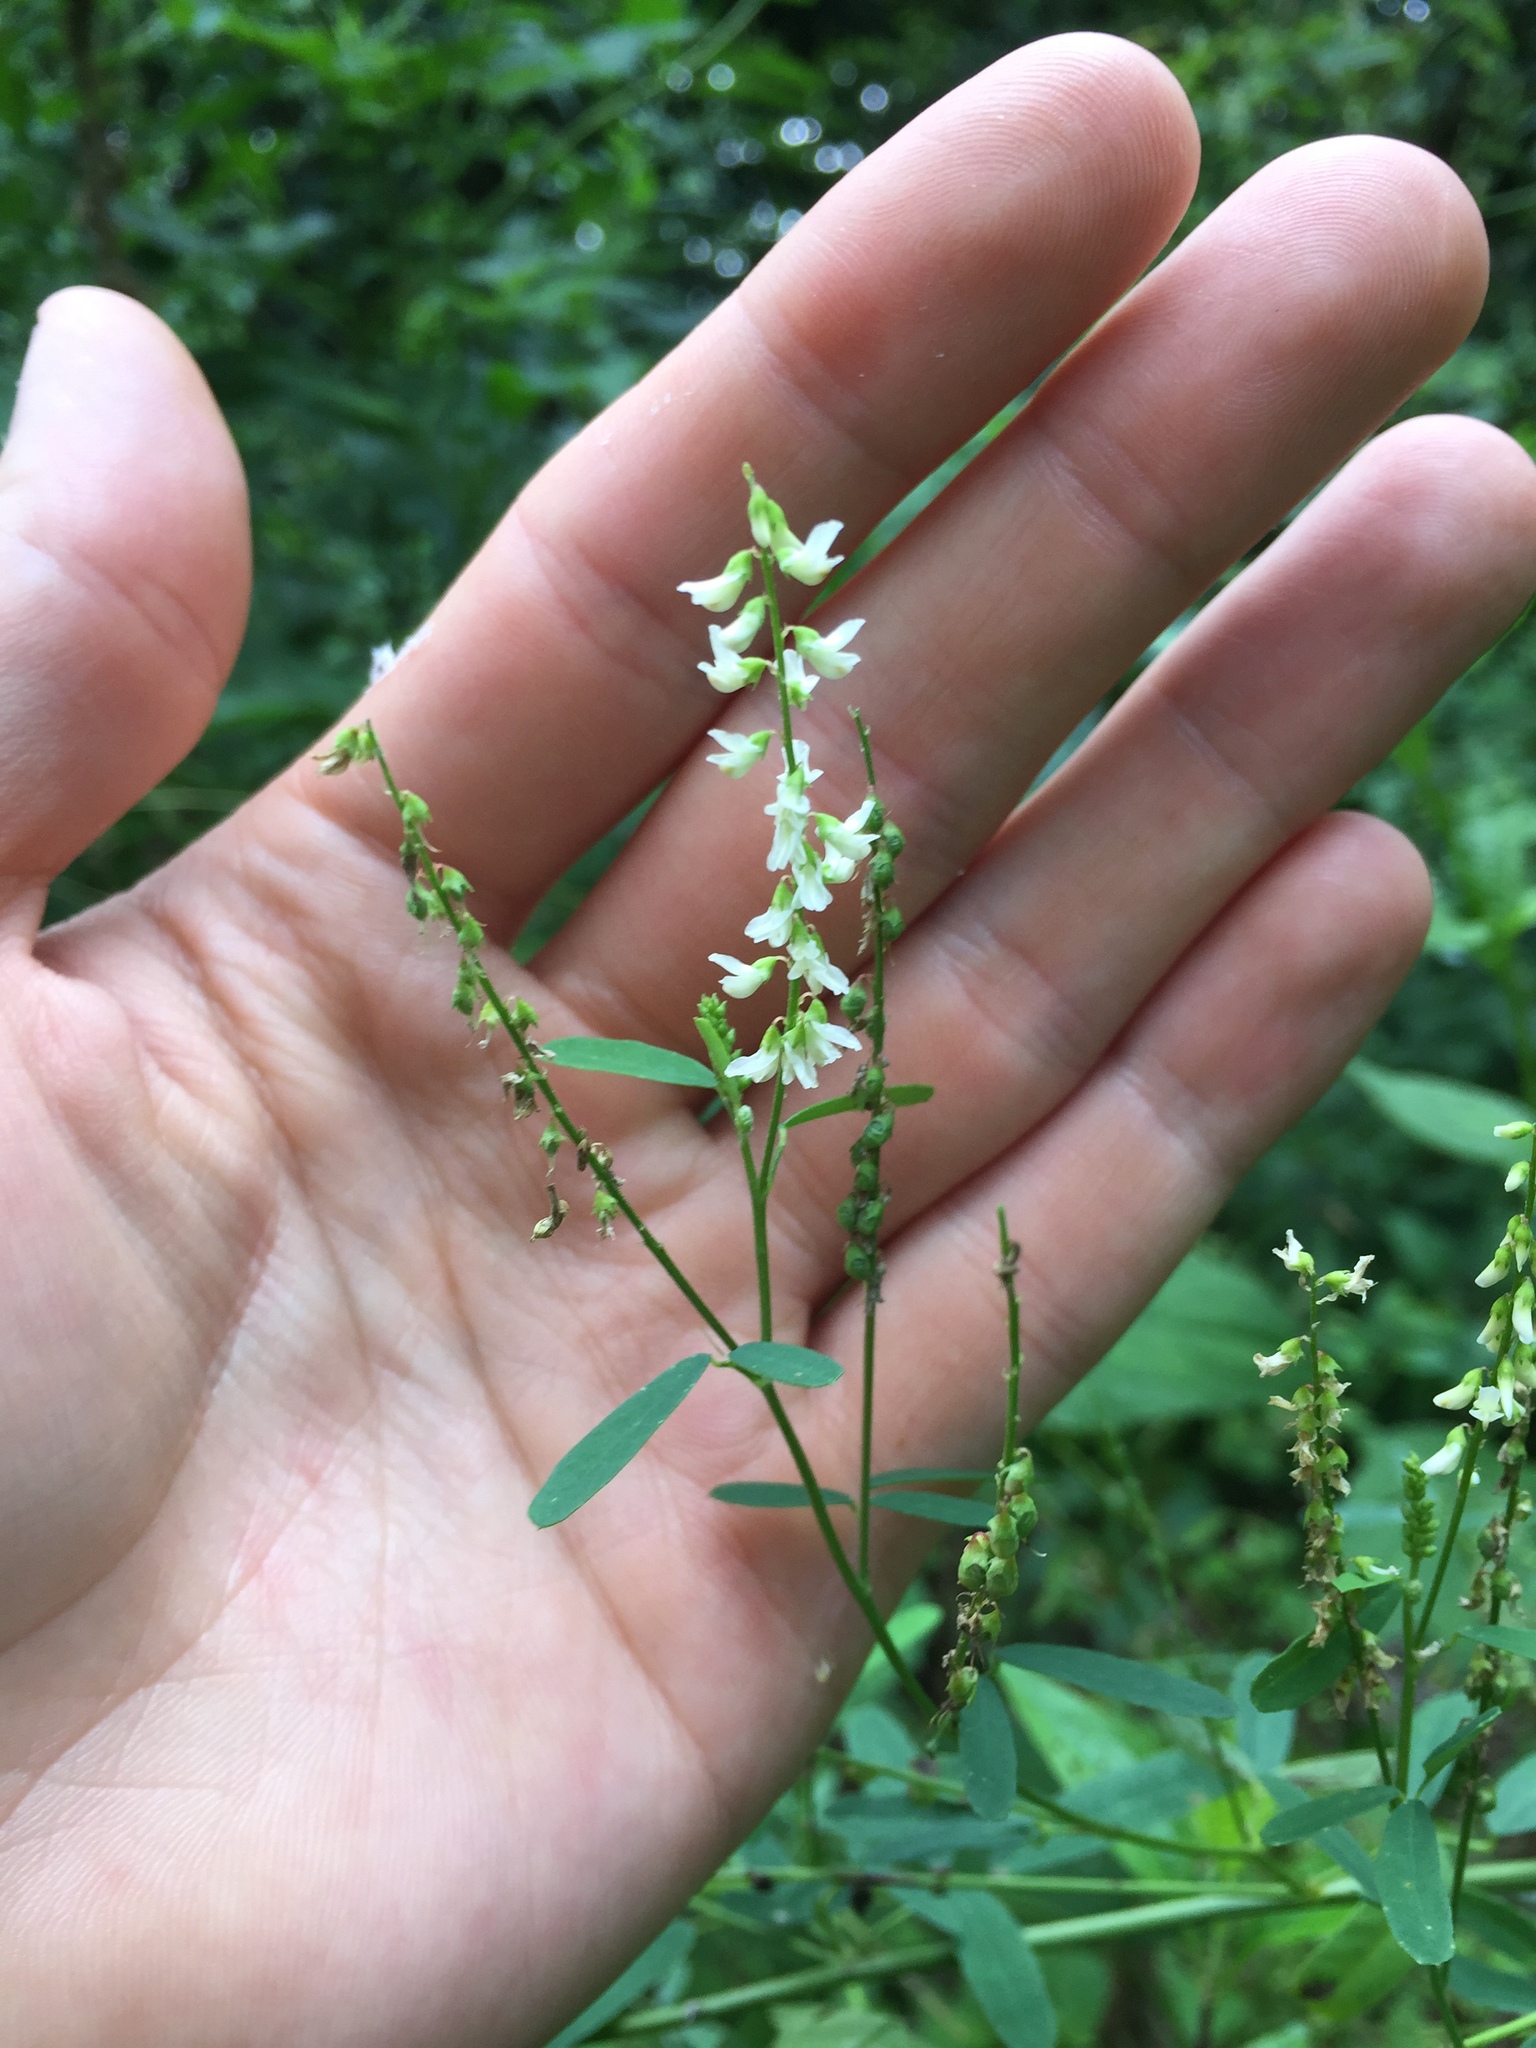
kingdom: Plantae
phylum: Tracheophyta
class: Magnoliopsida
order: Fabales
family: Fabaceae
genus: Melilotus
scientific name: Melilotus albus
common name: White melilot
